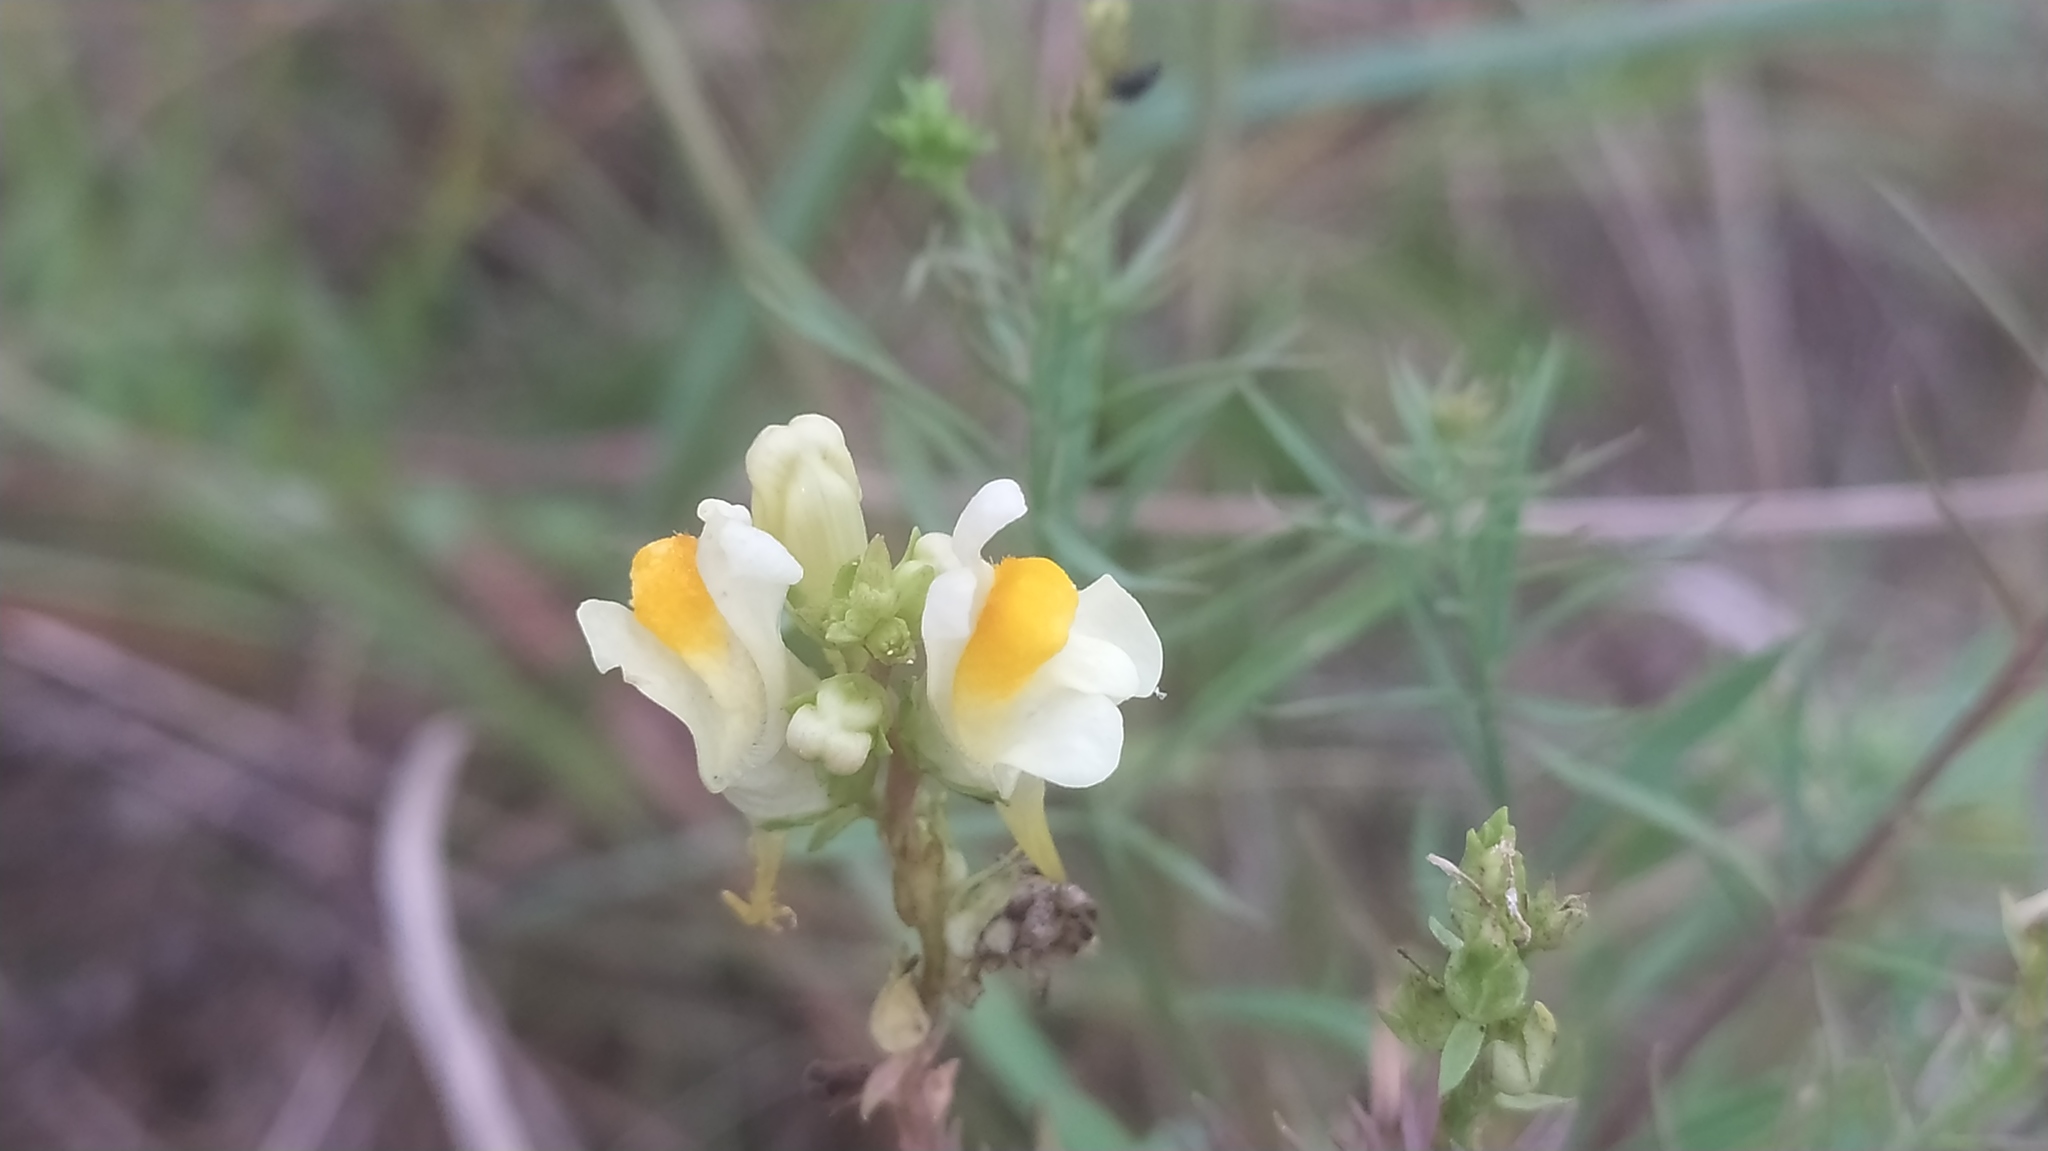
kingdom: Plantae
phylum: Tracheophyta
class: Magnoliopsida
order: Lamiales
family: Plantaginaceae
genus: Linaria
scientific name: Linaria vulgaris
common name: Butter and eggs
